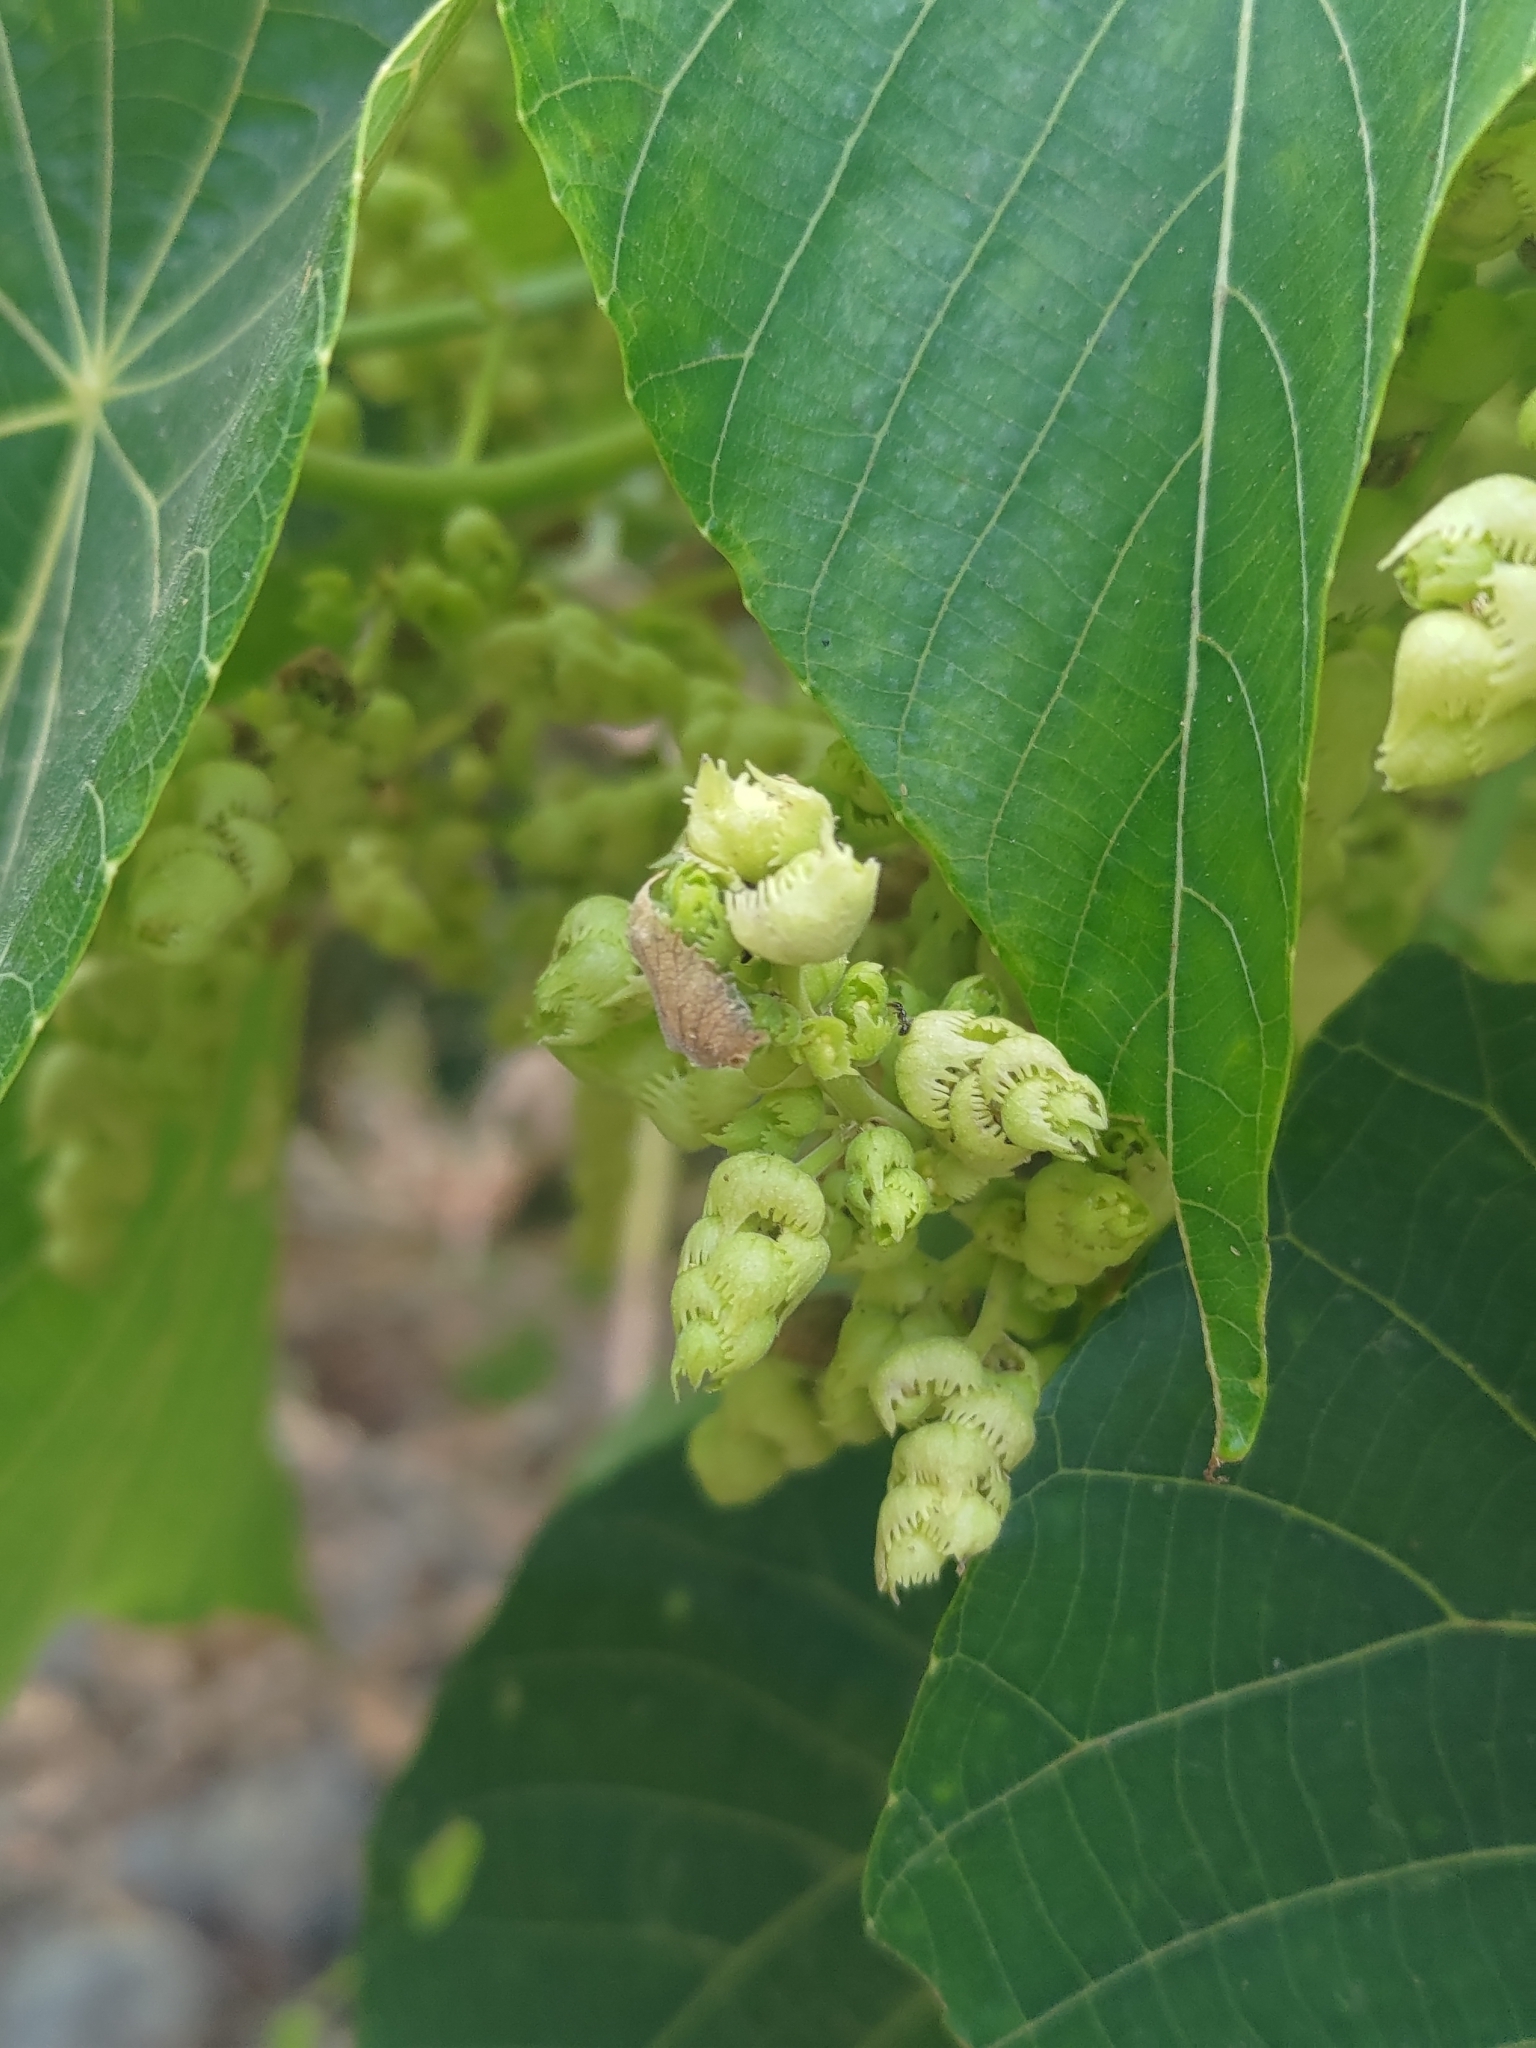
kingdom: Plantae
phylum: Tracheophyta
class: Magnoliopsida
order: Malpighiales
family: Euphorbiaceae
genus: Macaranga
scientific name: Macaranga tanarius
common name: Parasol leaf tree
